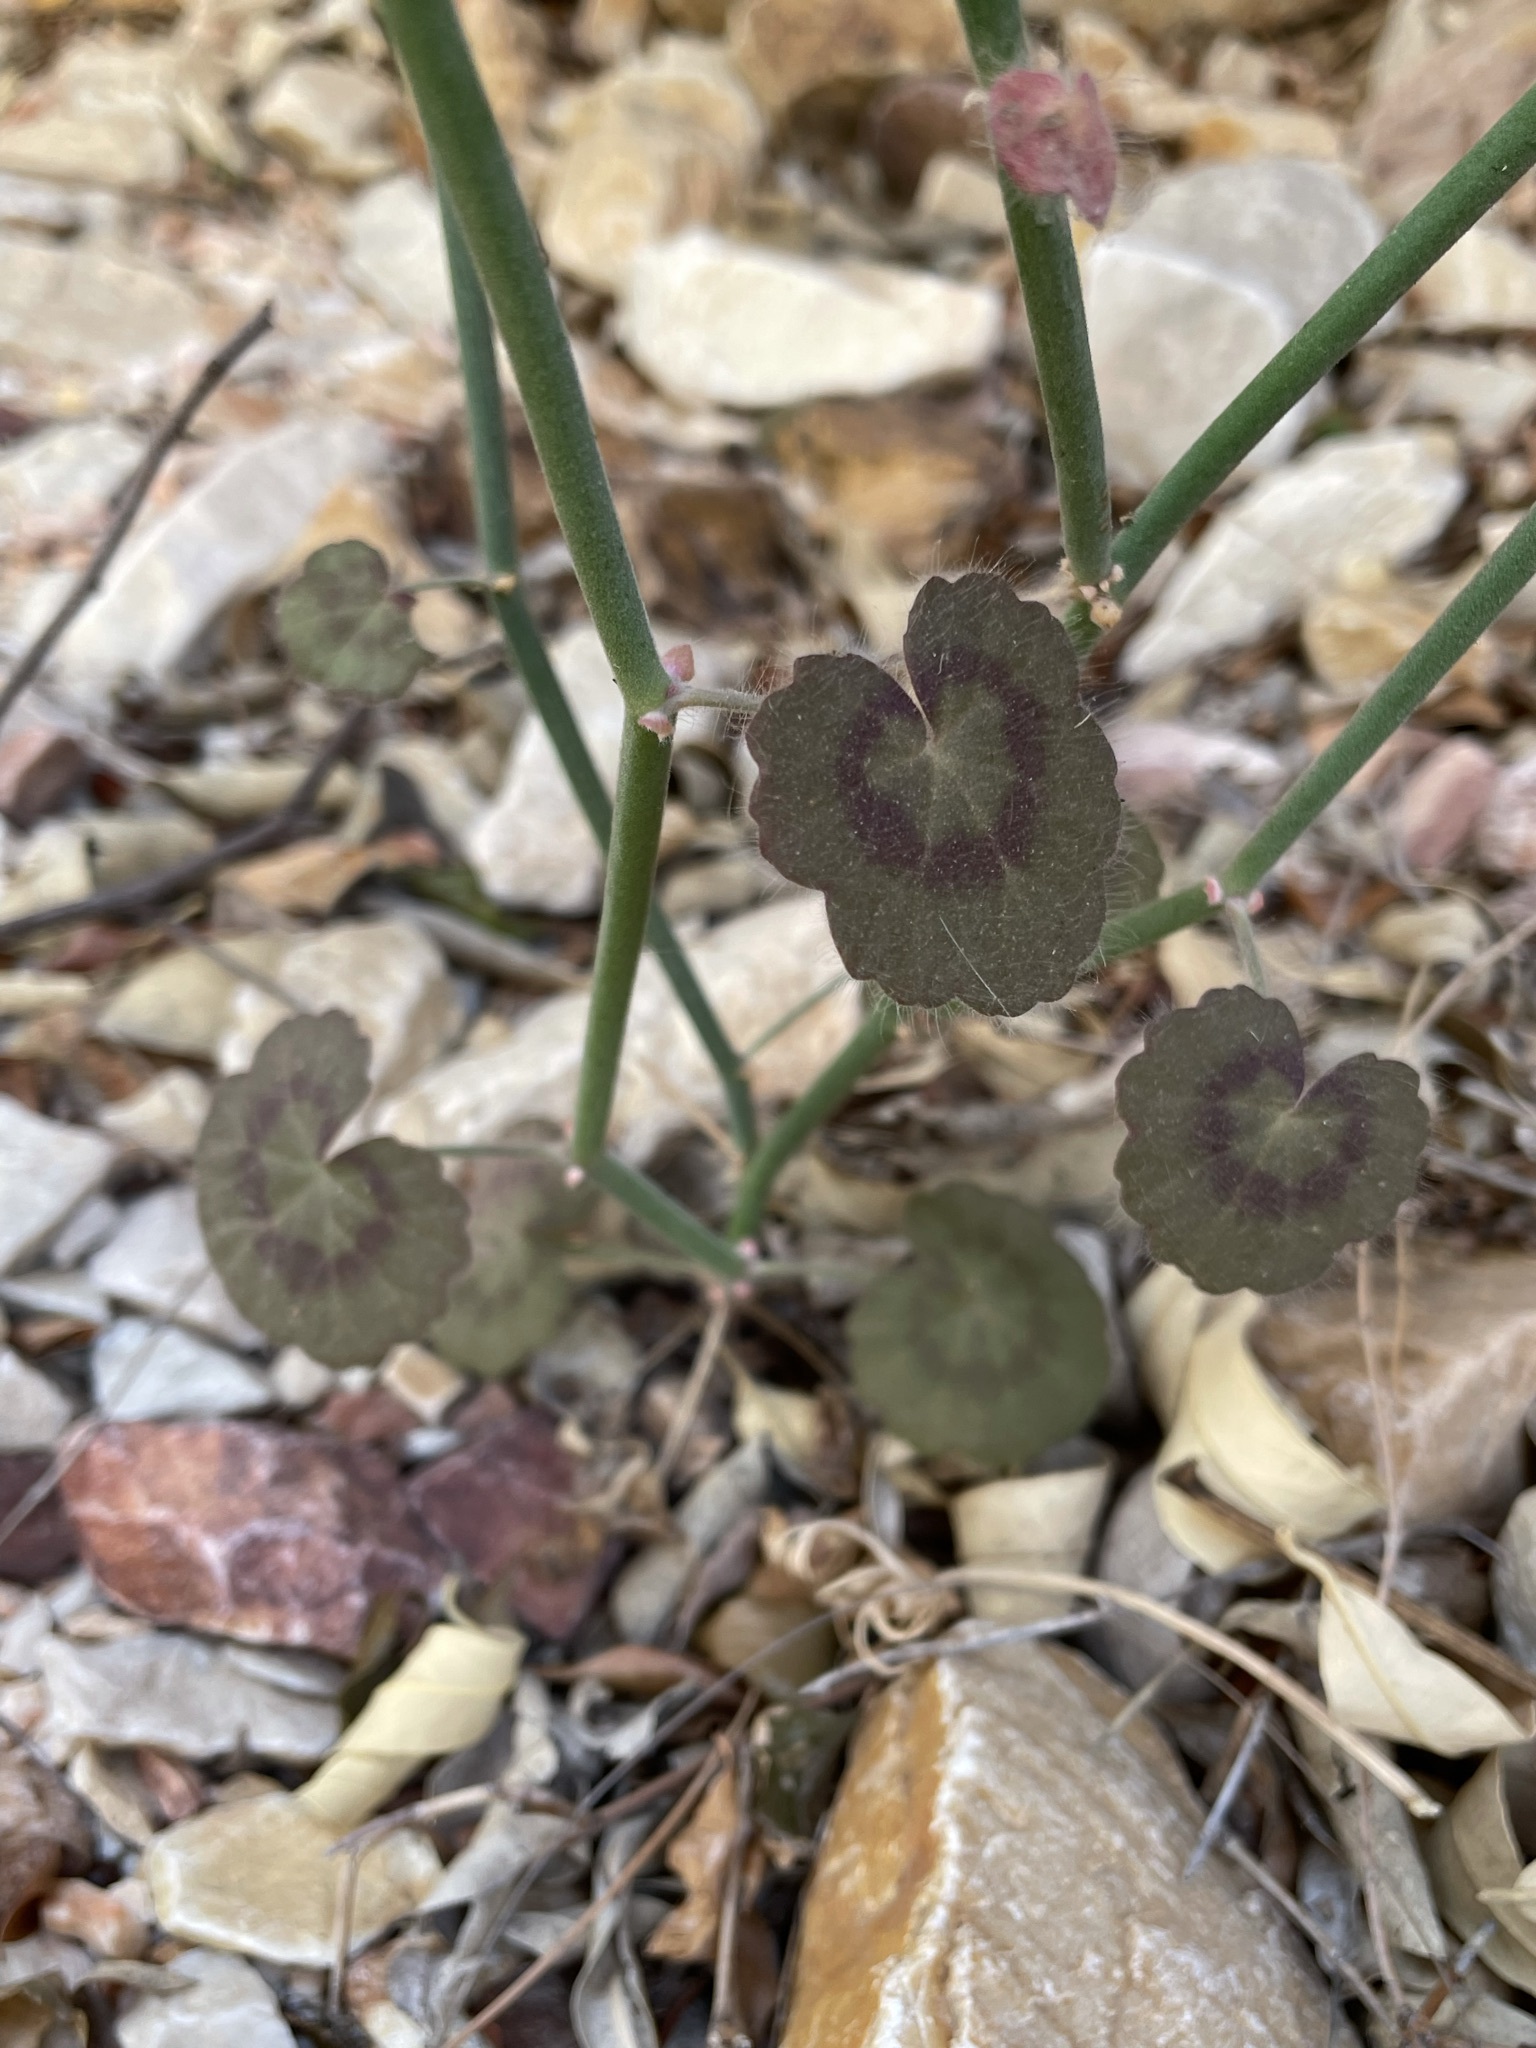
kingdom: Plantae
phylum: Tracheophyta
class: Magnoliopsida
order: Geraniales
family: Geraniaceae
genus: Pelargonium
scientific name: Pelargonium tetragonum
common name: Square-stack crane's-bill
